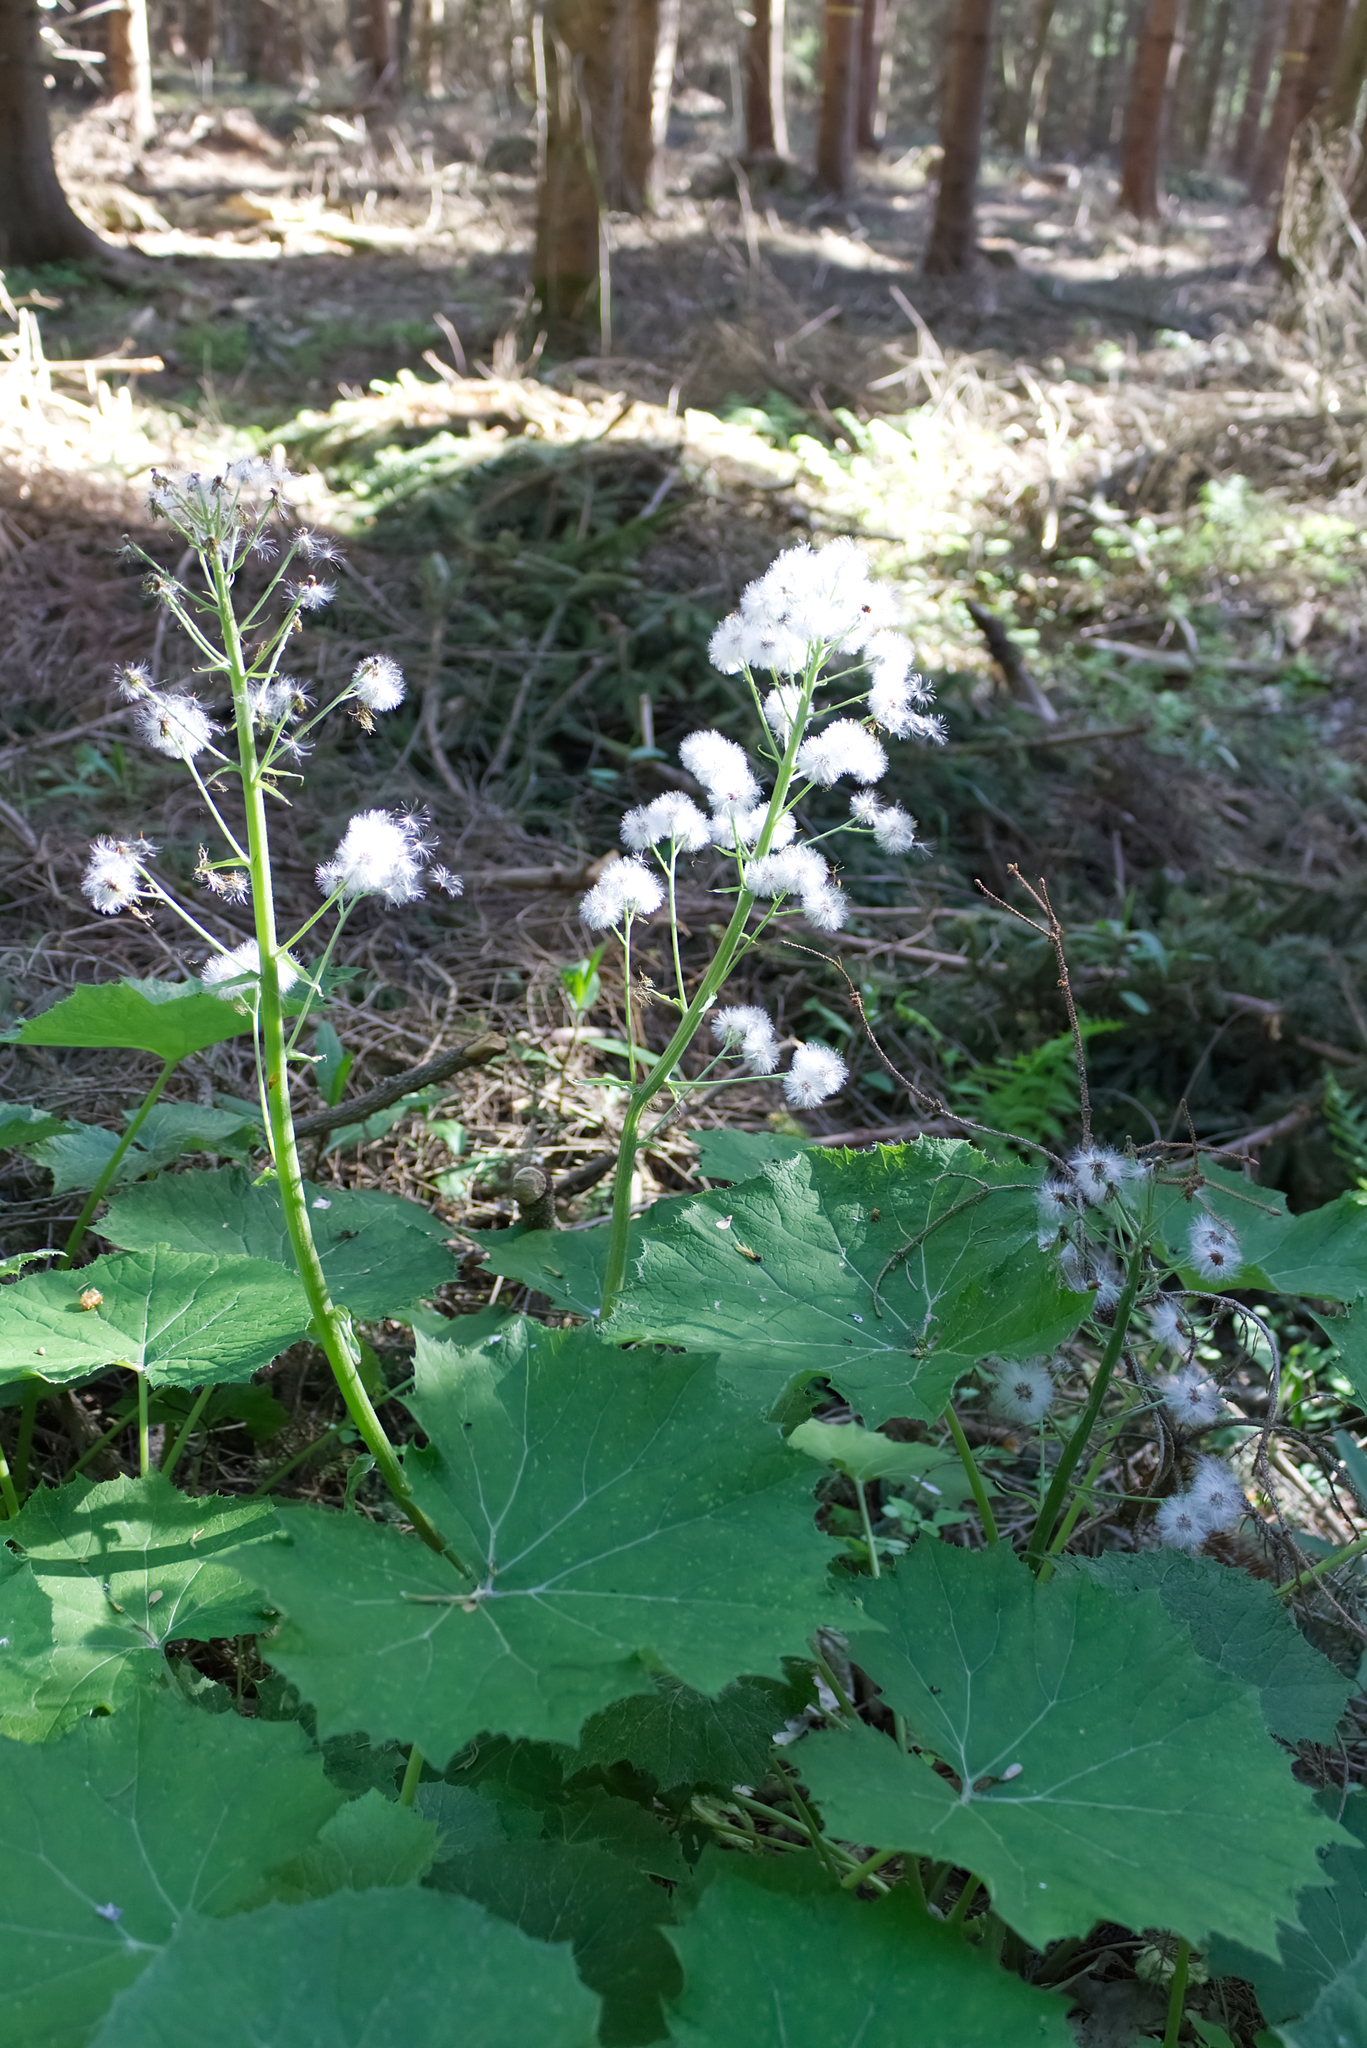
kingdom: Plantae
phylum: Tracheophyta
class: Magnoliopsida
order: Asterales
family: Asteraceae
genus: Petasites
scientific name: Petasites albus
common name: White butterbur
